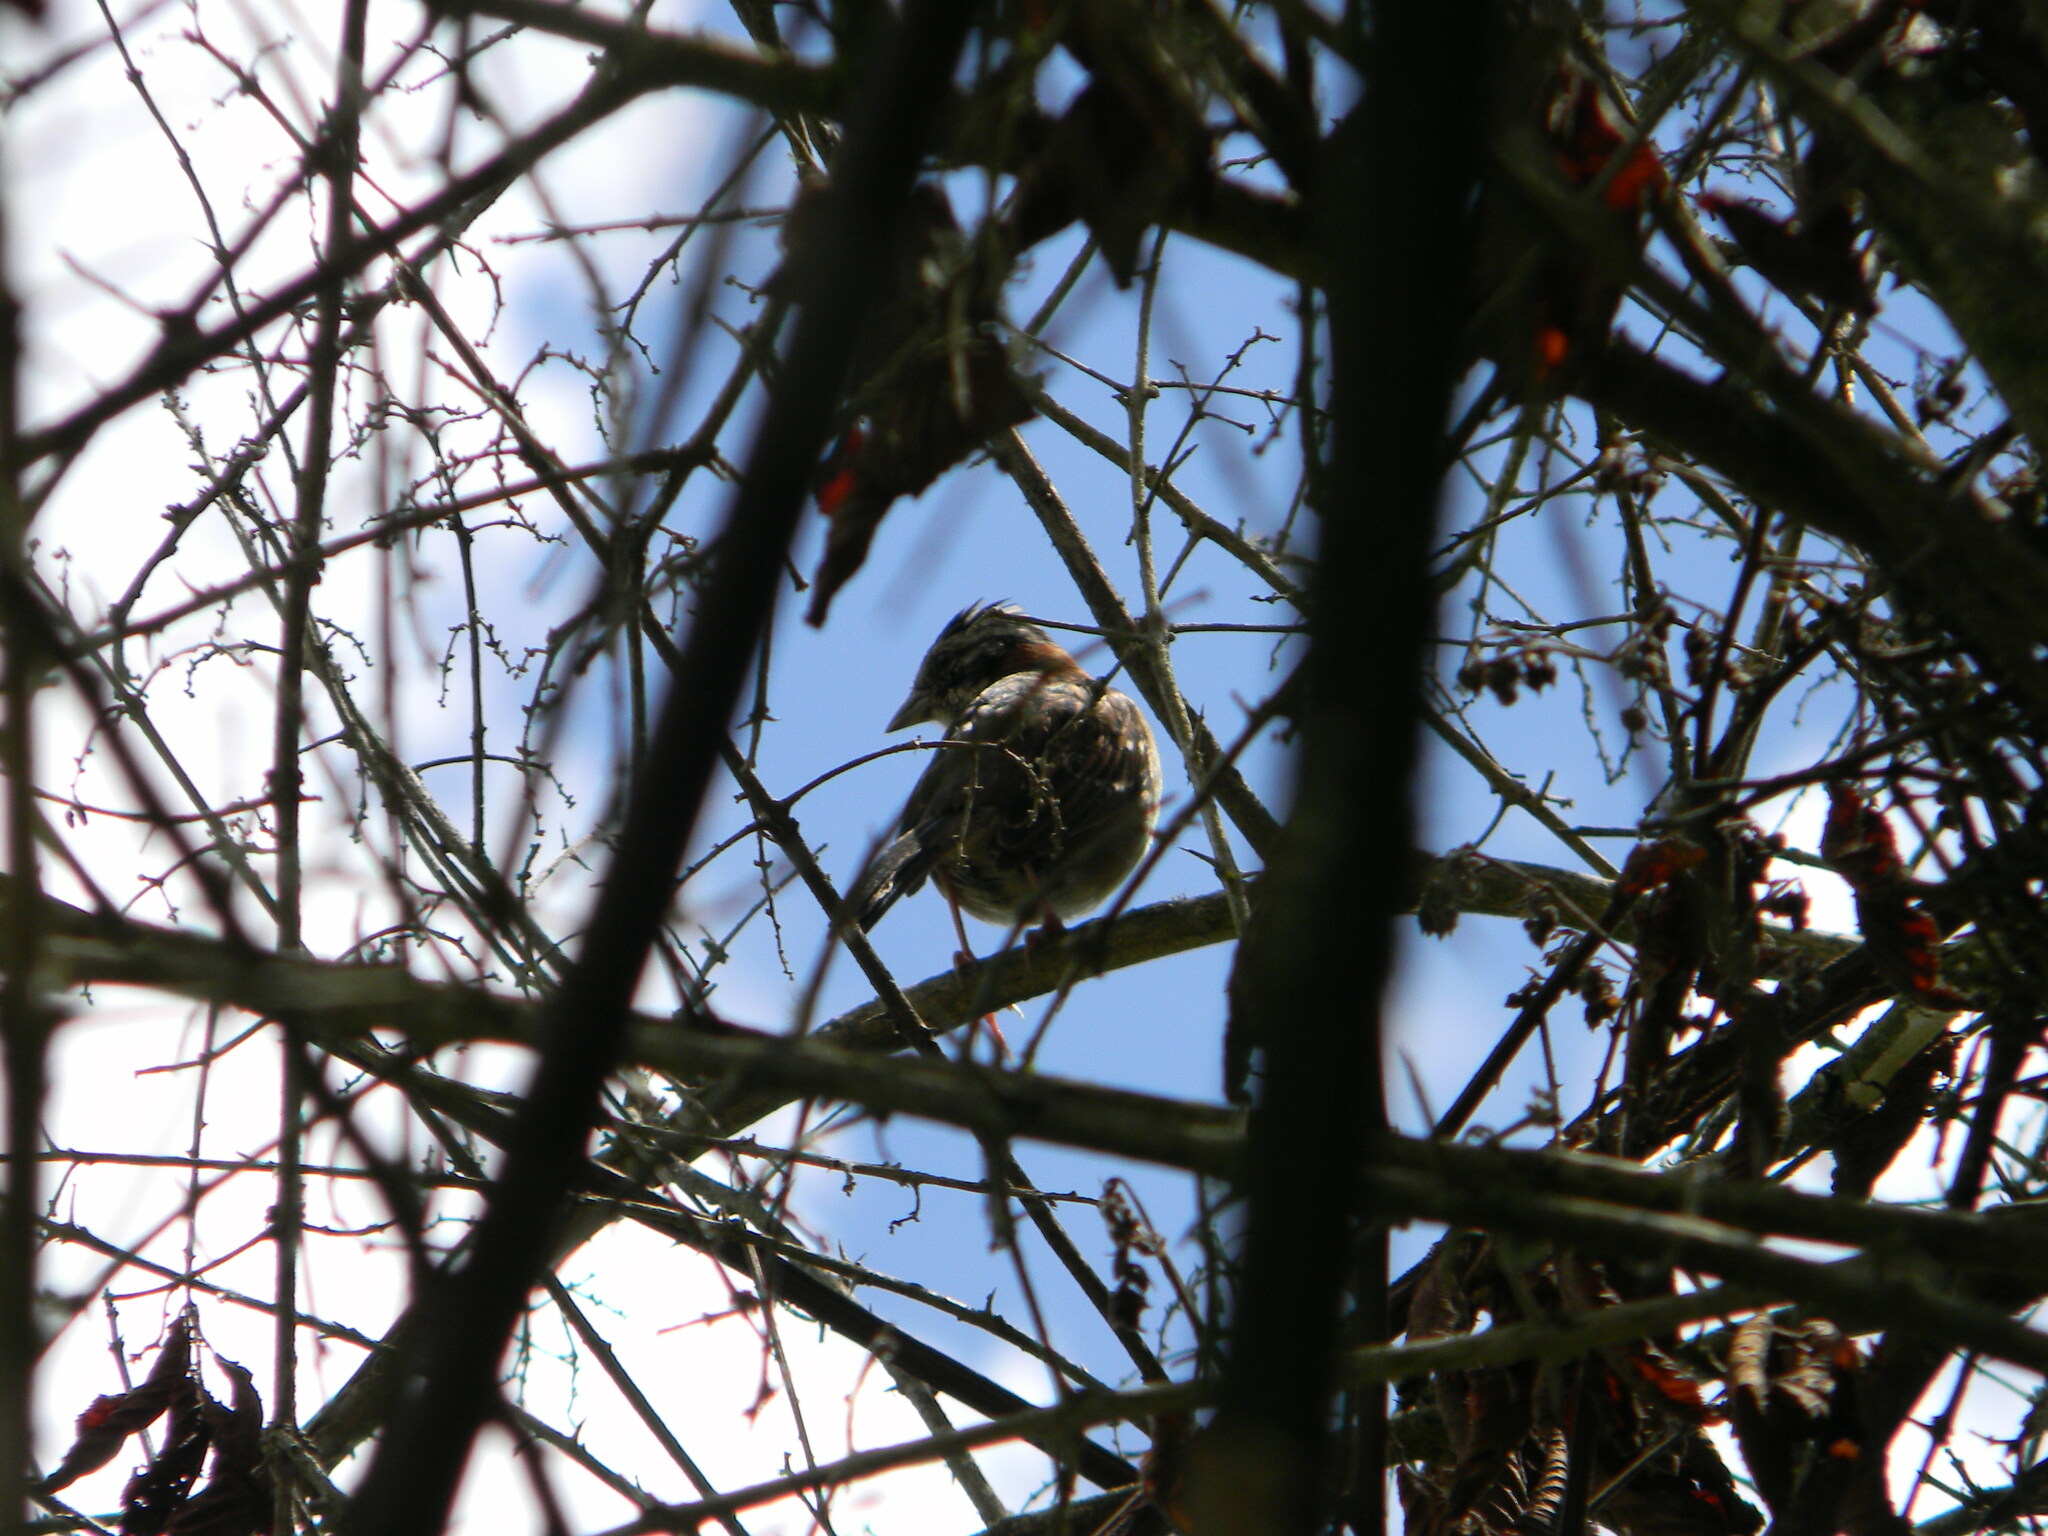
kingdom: Animalia
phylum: Chordata
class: Aves
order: Passeriformes
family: Passerellidae
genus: Zonotrichia
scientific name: Zonotrichia capensis
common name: Rufous-collared sparrow
